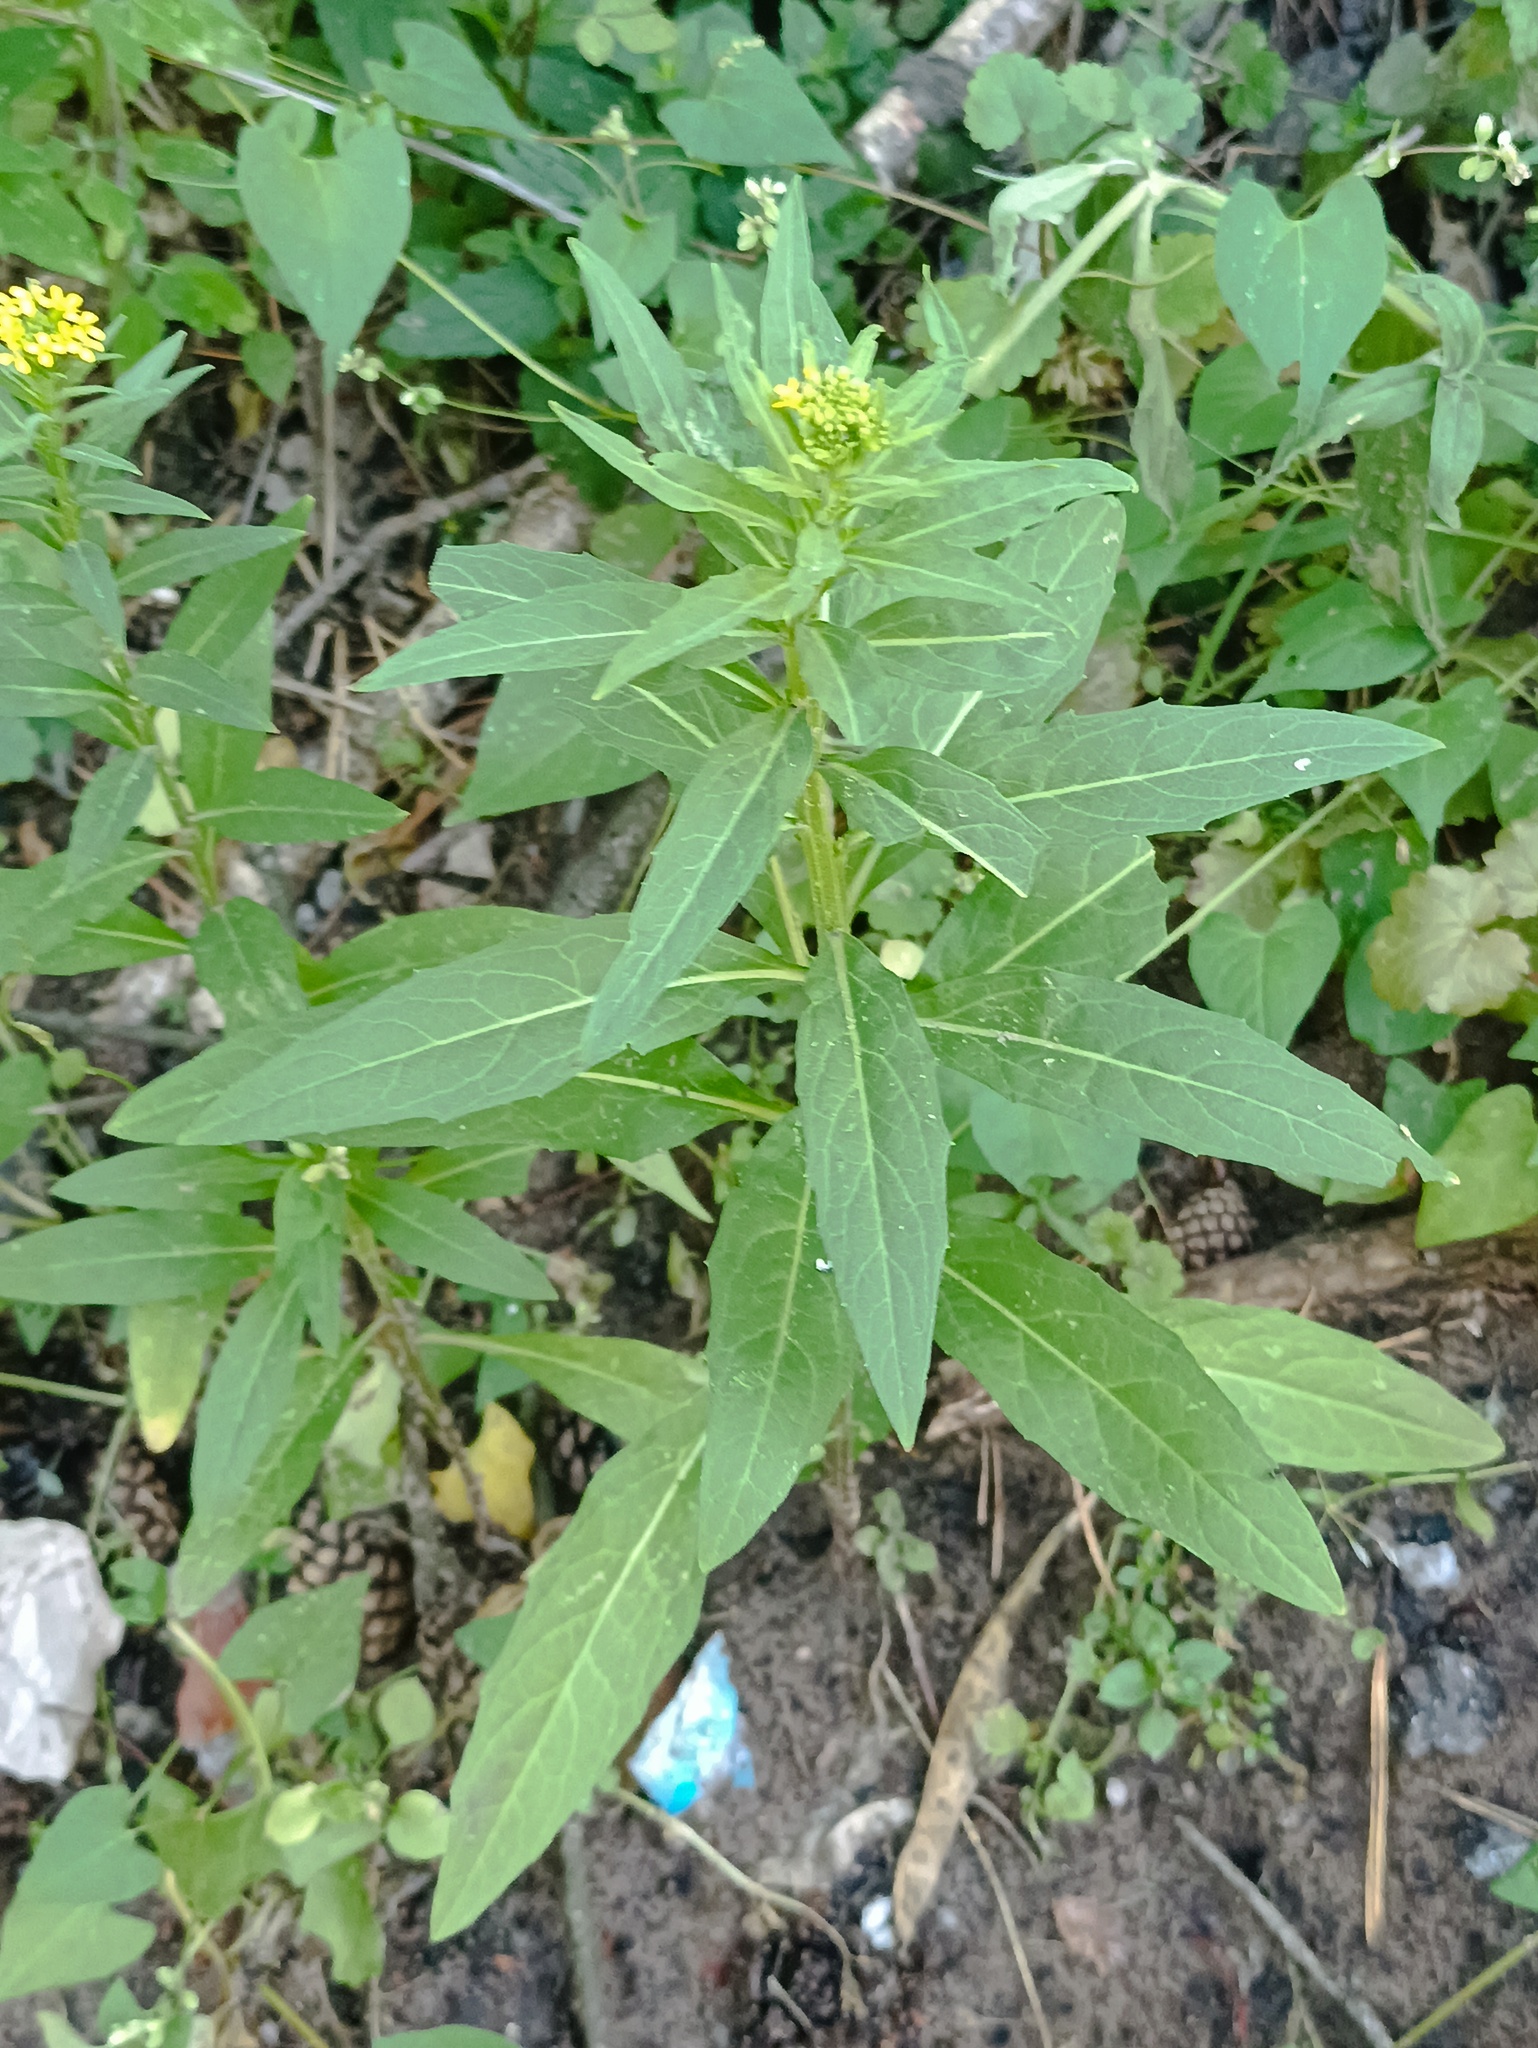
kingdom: Plantae
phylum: Tracheophyta
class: Magnoliopsida
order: Brassicales
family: Brassicaceae
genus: Erysimum
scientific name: Erysimum cheiranthoides
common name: Treacle mustard
